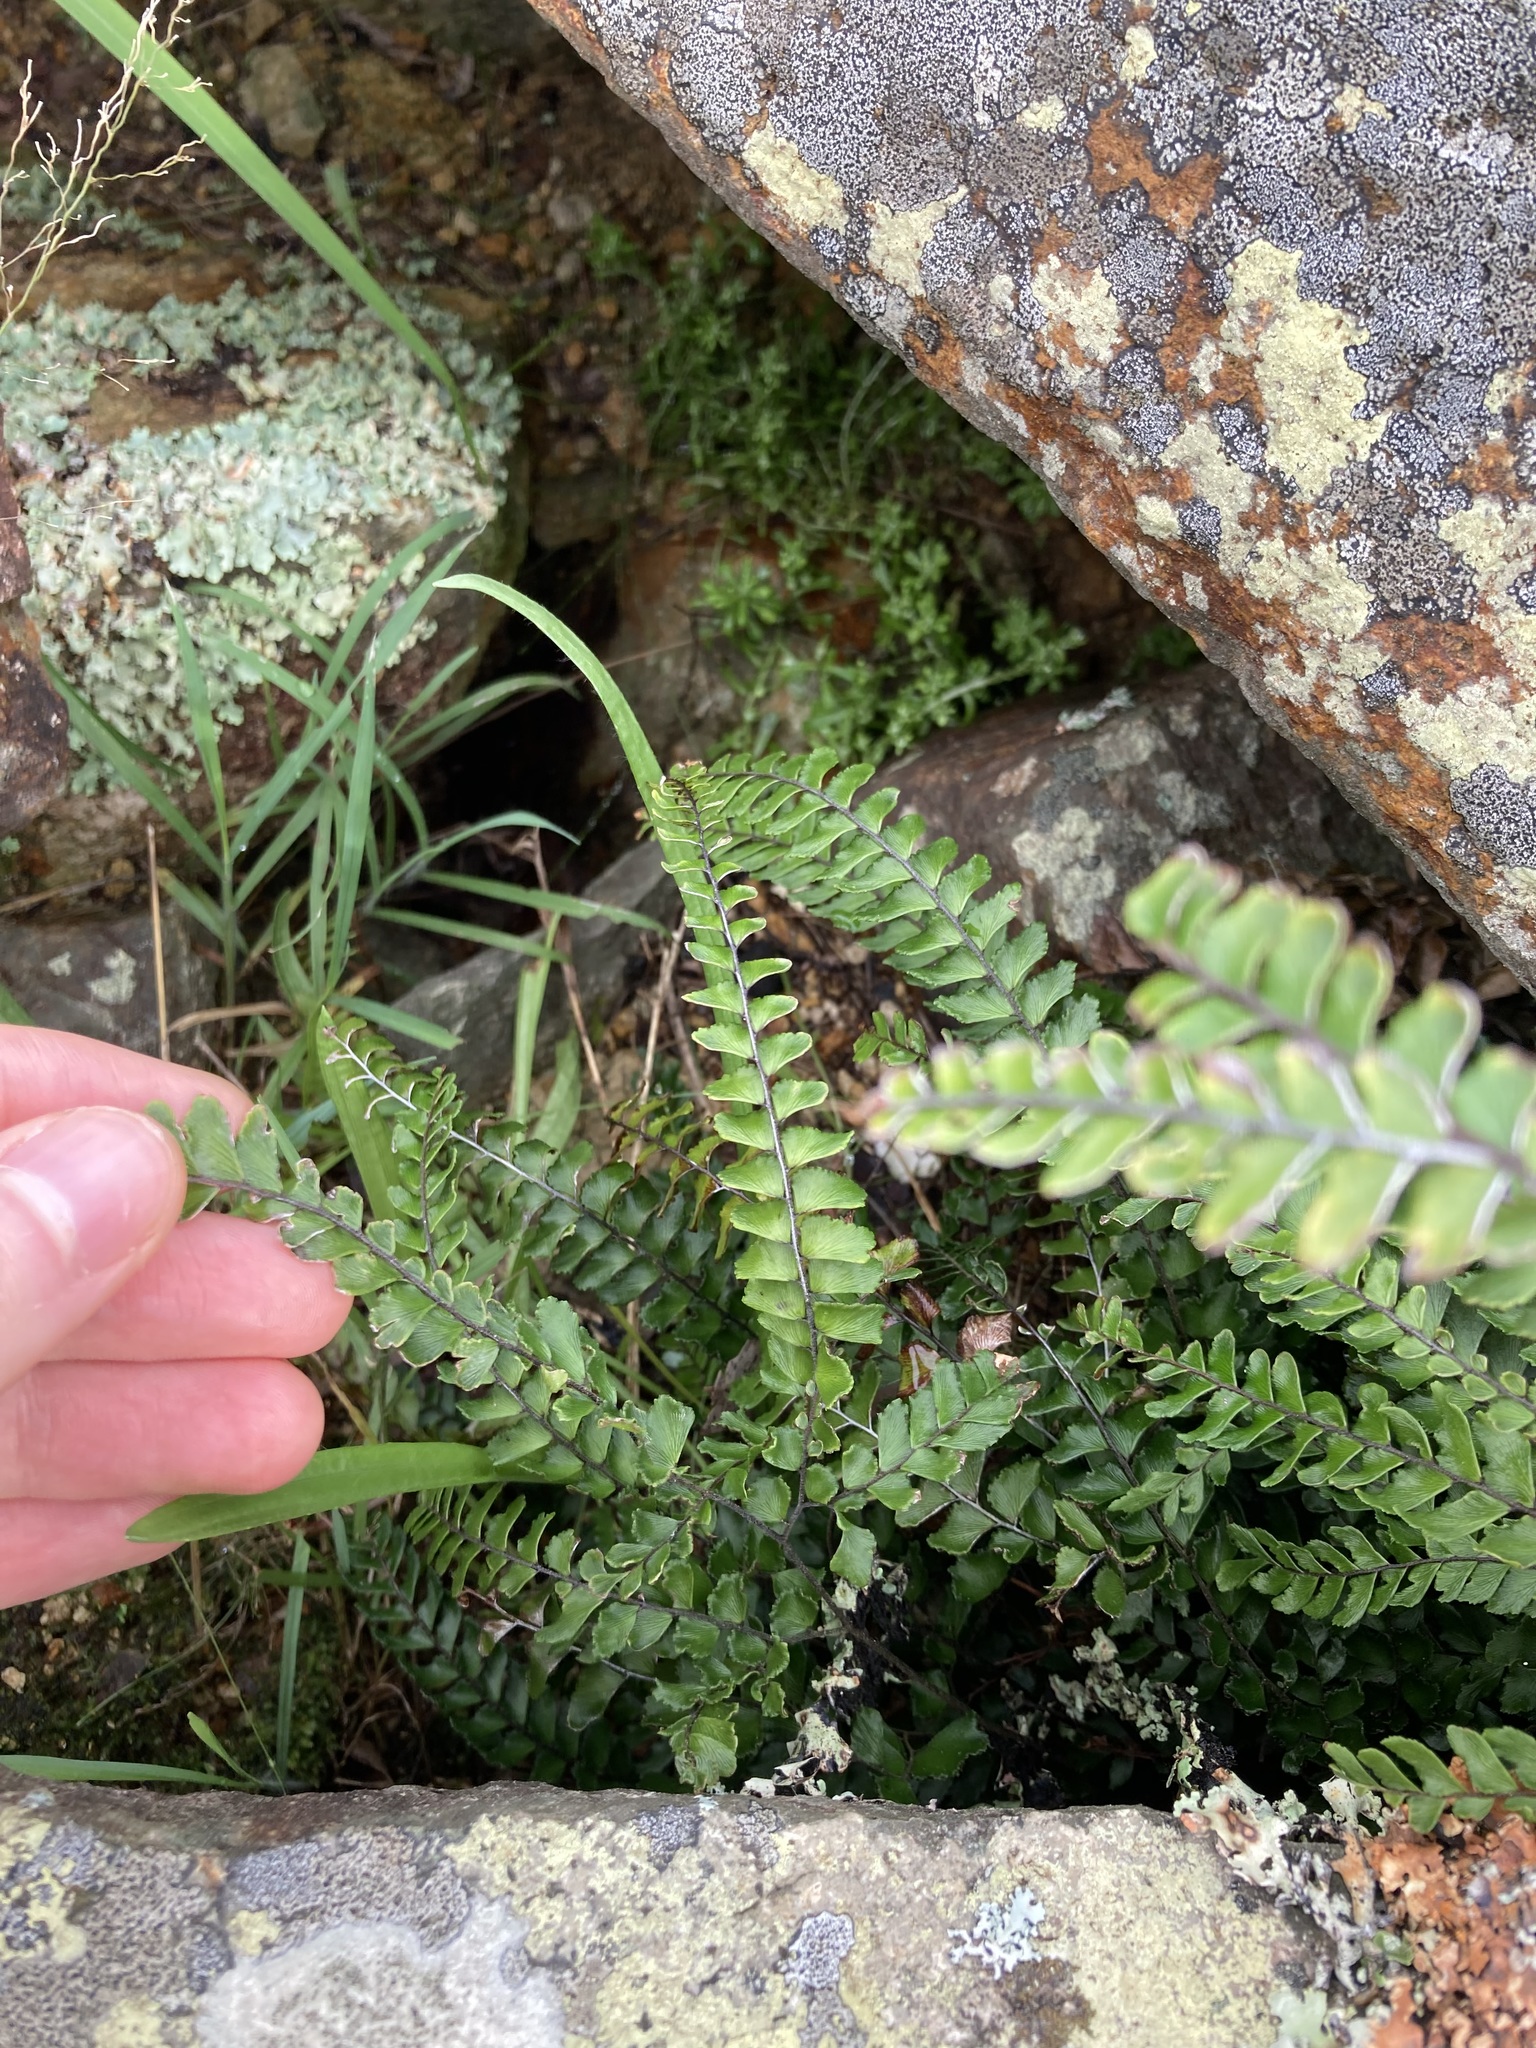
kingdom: Plantae
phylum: Tracheophyta
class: Polypodiopsida
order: Polypodiales
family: Pteridaceae
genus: Adiantum
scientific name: Adiantum hispidulum
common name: Rough maidenhair
